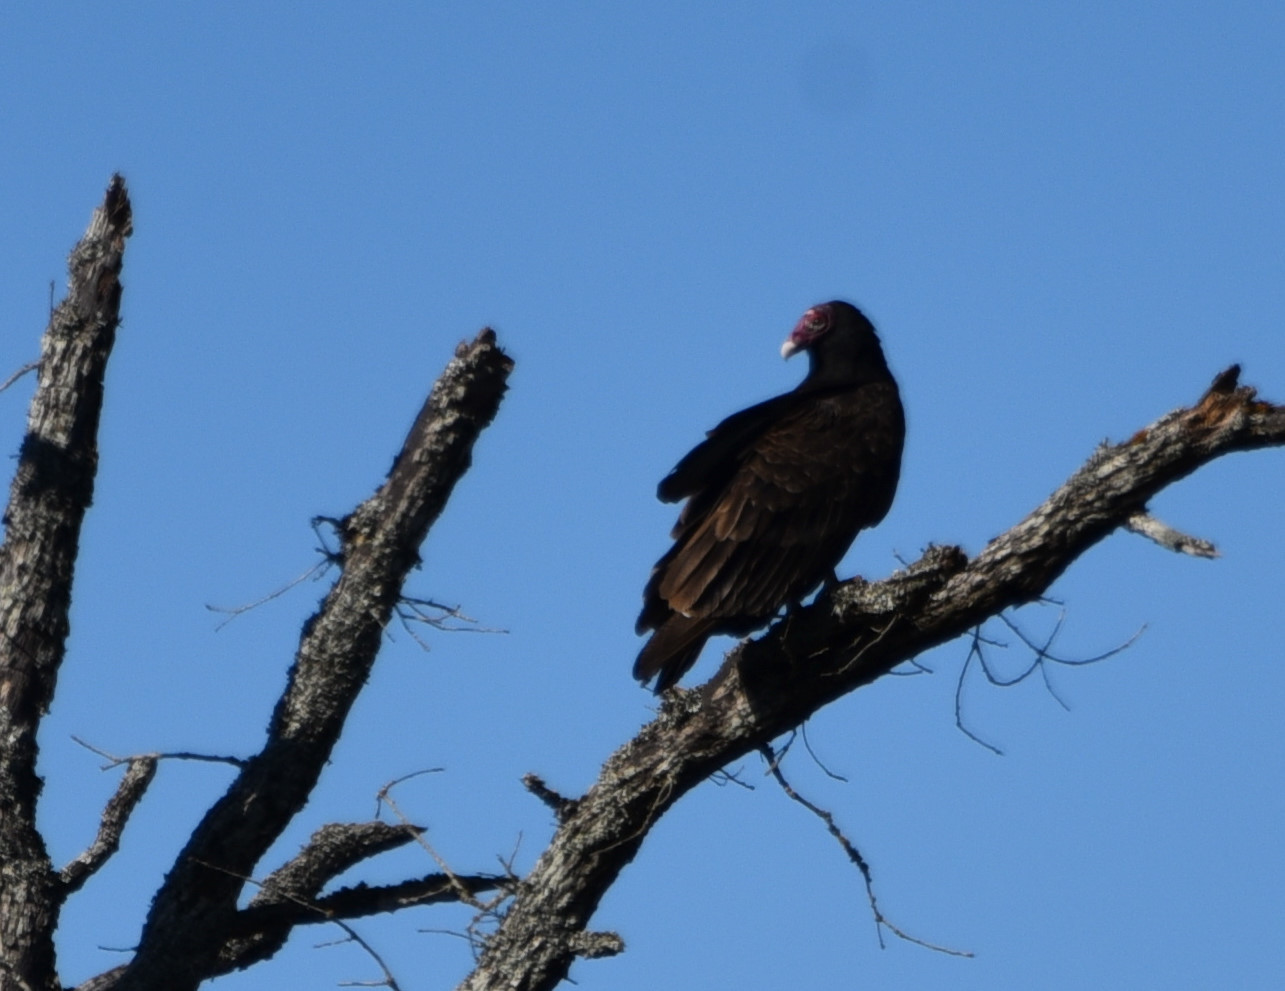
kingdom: Animalia
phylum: Chordata
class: Aves
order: Accipitriformes
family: Cathartidae
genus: Cathartes
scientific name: Cathartes aura
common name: Turkey vulture
